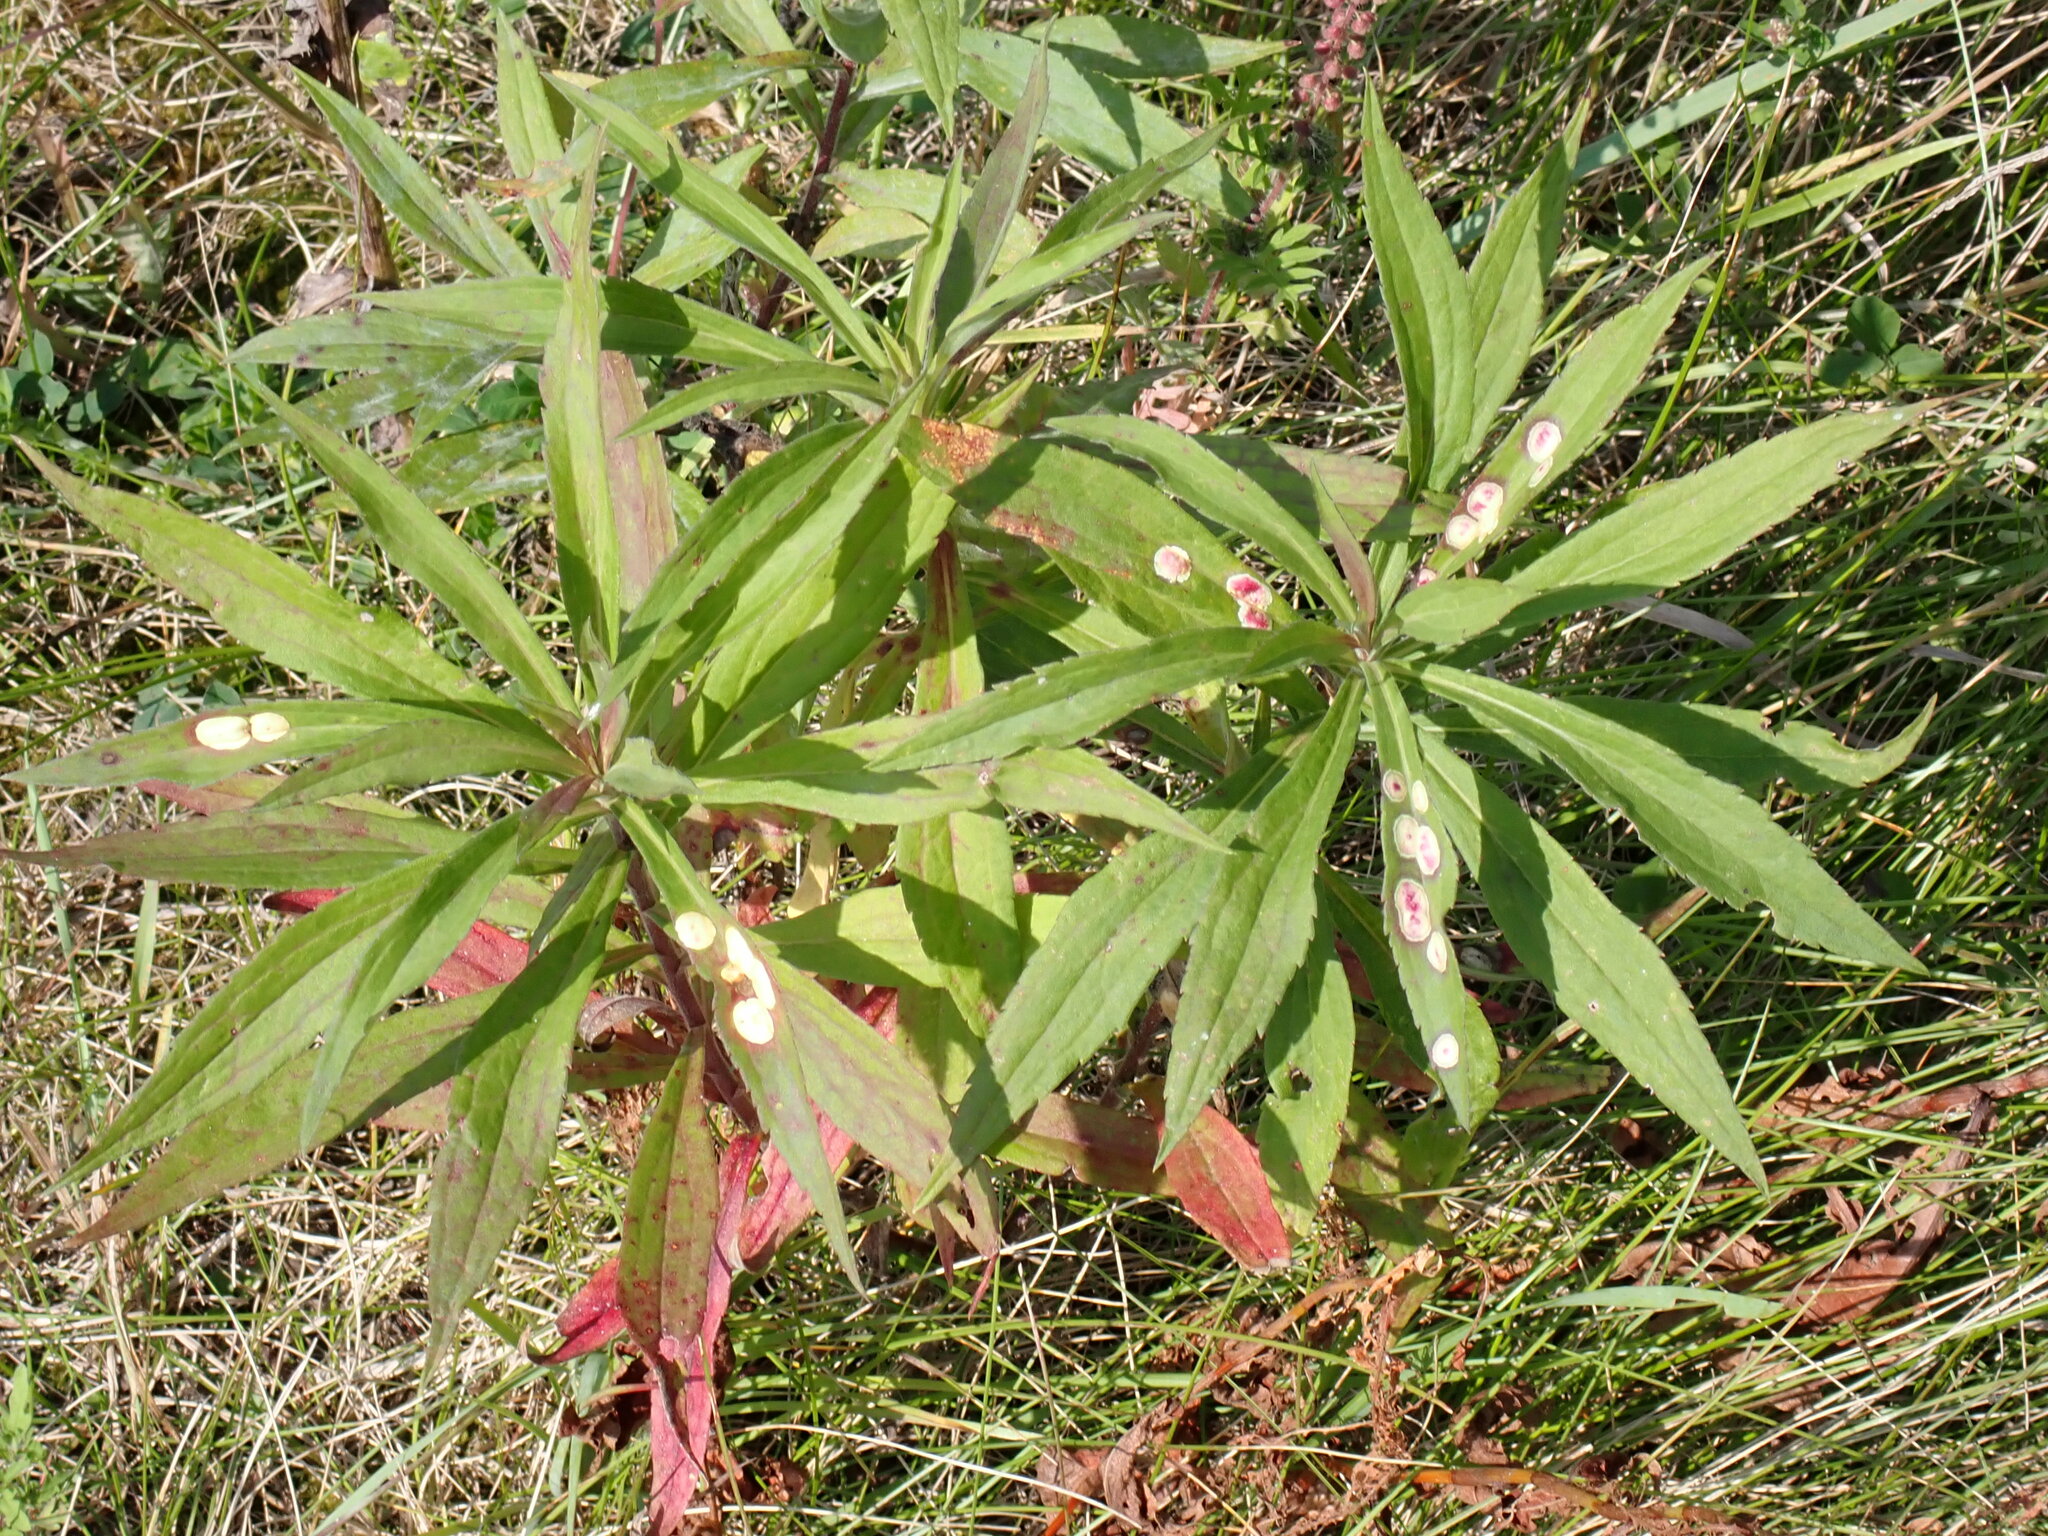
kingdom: Animalia
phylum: Arthropoda
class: Insecta
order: Diptera
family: Cecidomyiidae
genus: Asteromyia
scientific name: Asteromyia carbonifera
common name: Carbonifera goldenrod gall midge
